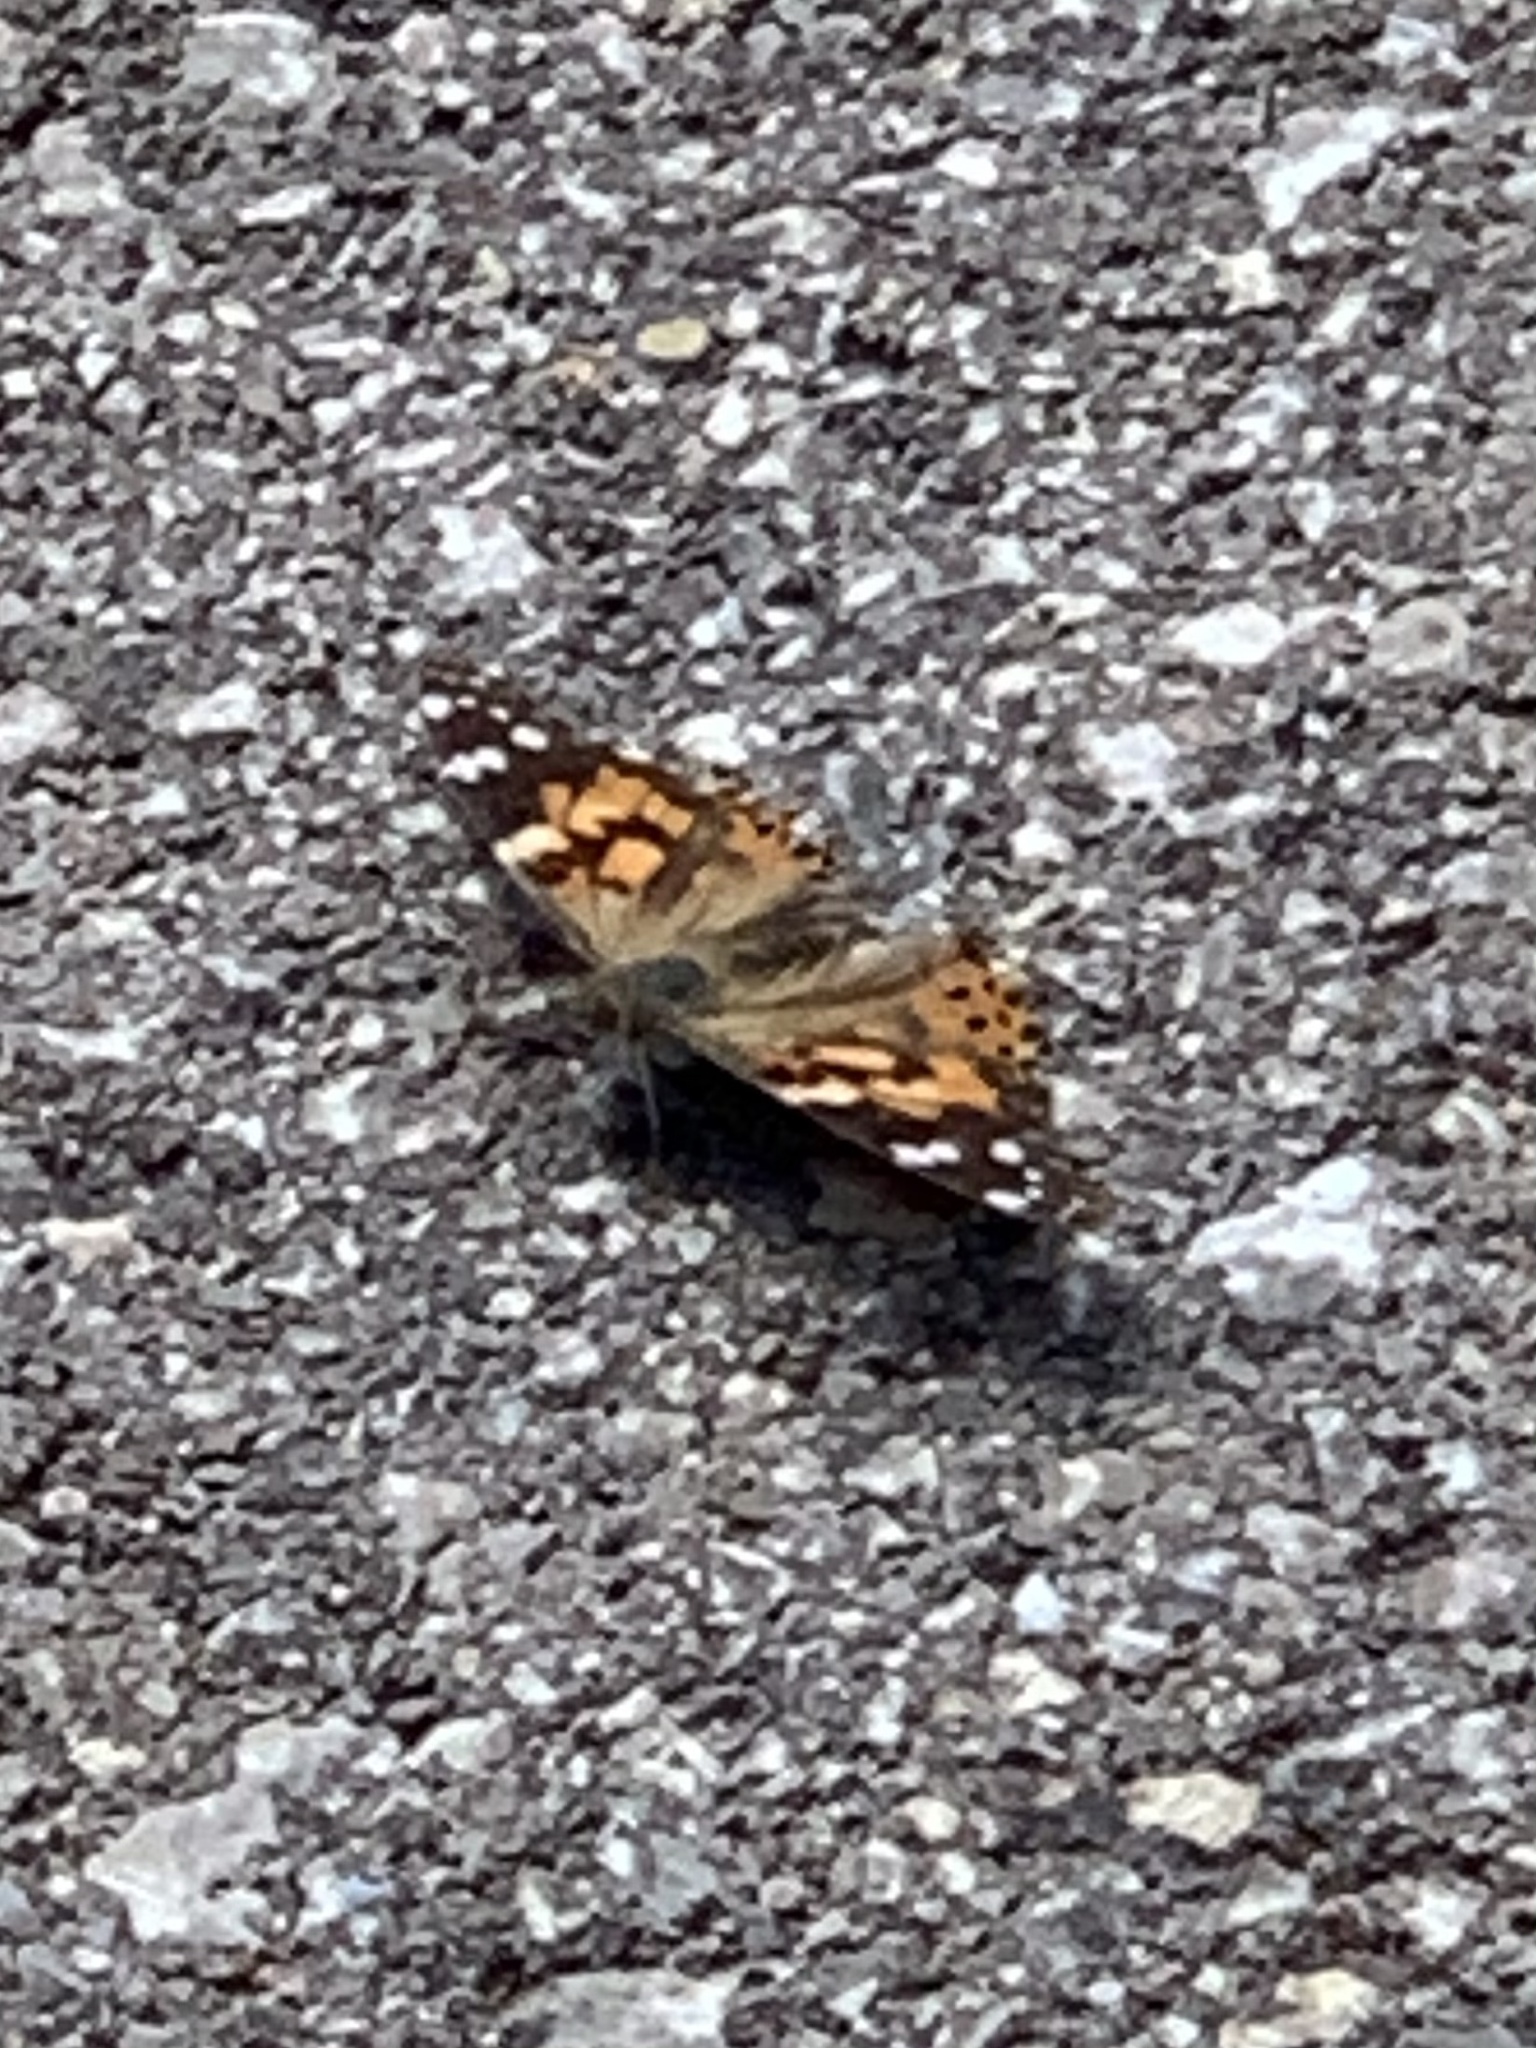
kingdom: Animalia
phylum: Arthropoda
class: Insecta
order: Lepidoptera
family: Nymphalidae
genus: Vanessa
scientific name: Vanessa cardui
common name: Painted lady
